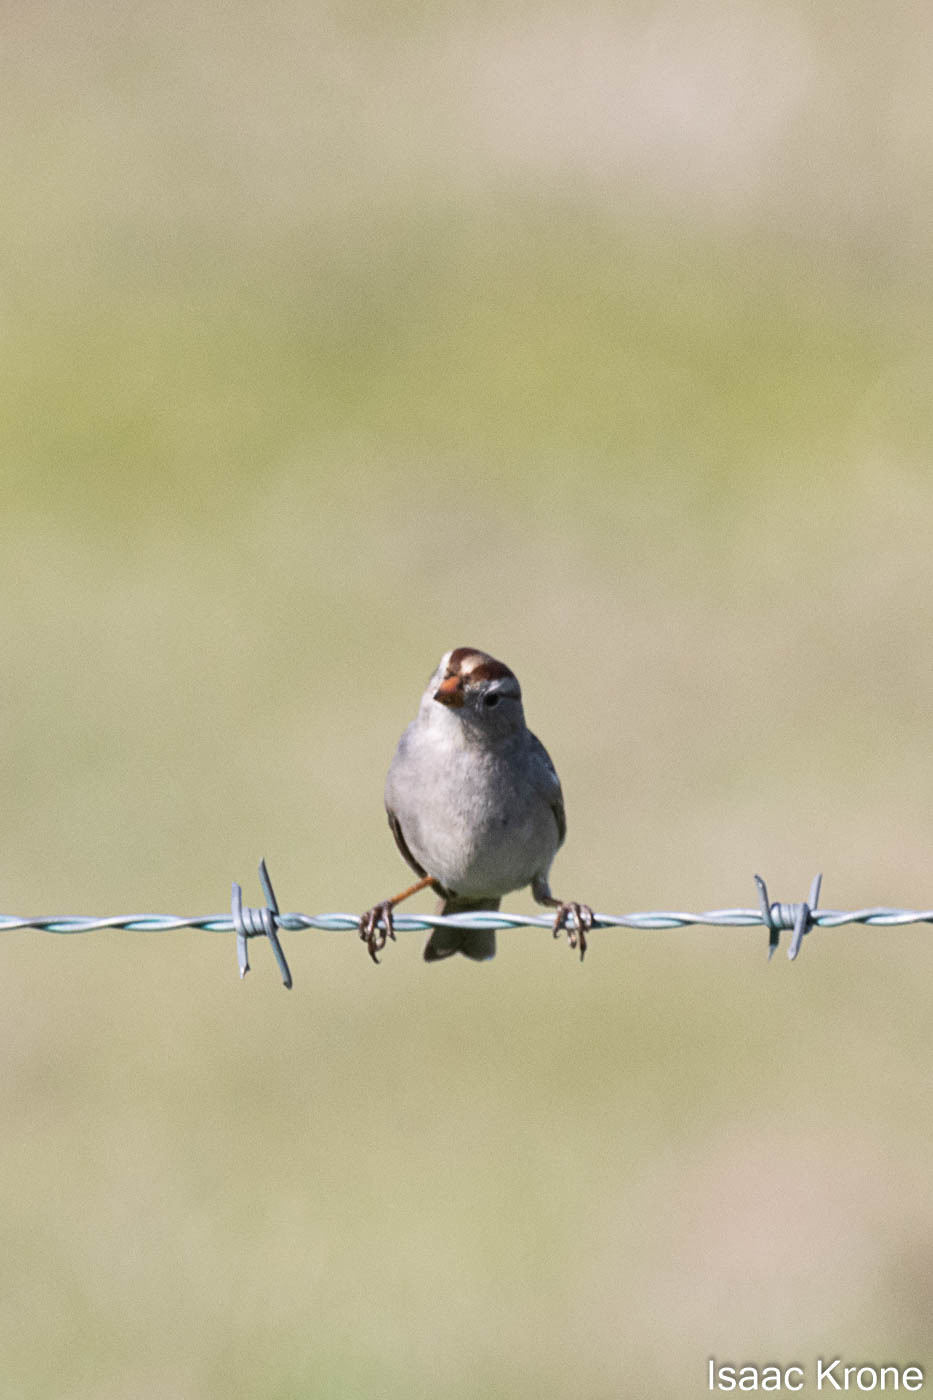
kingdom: Animalia
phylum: Chordata
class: Aves
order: Passeriformes
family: Passerellidae
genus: Zonotrichia
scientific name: Zonotrichia leucophrys
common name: White-crowned sparrow
